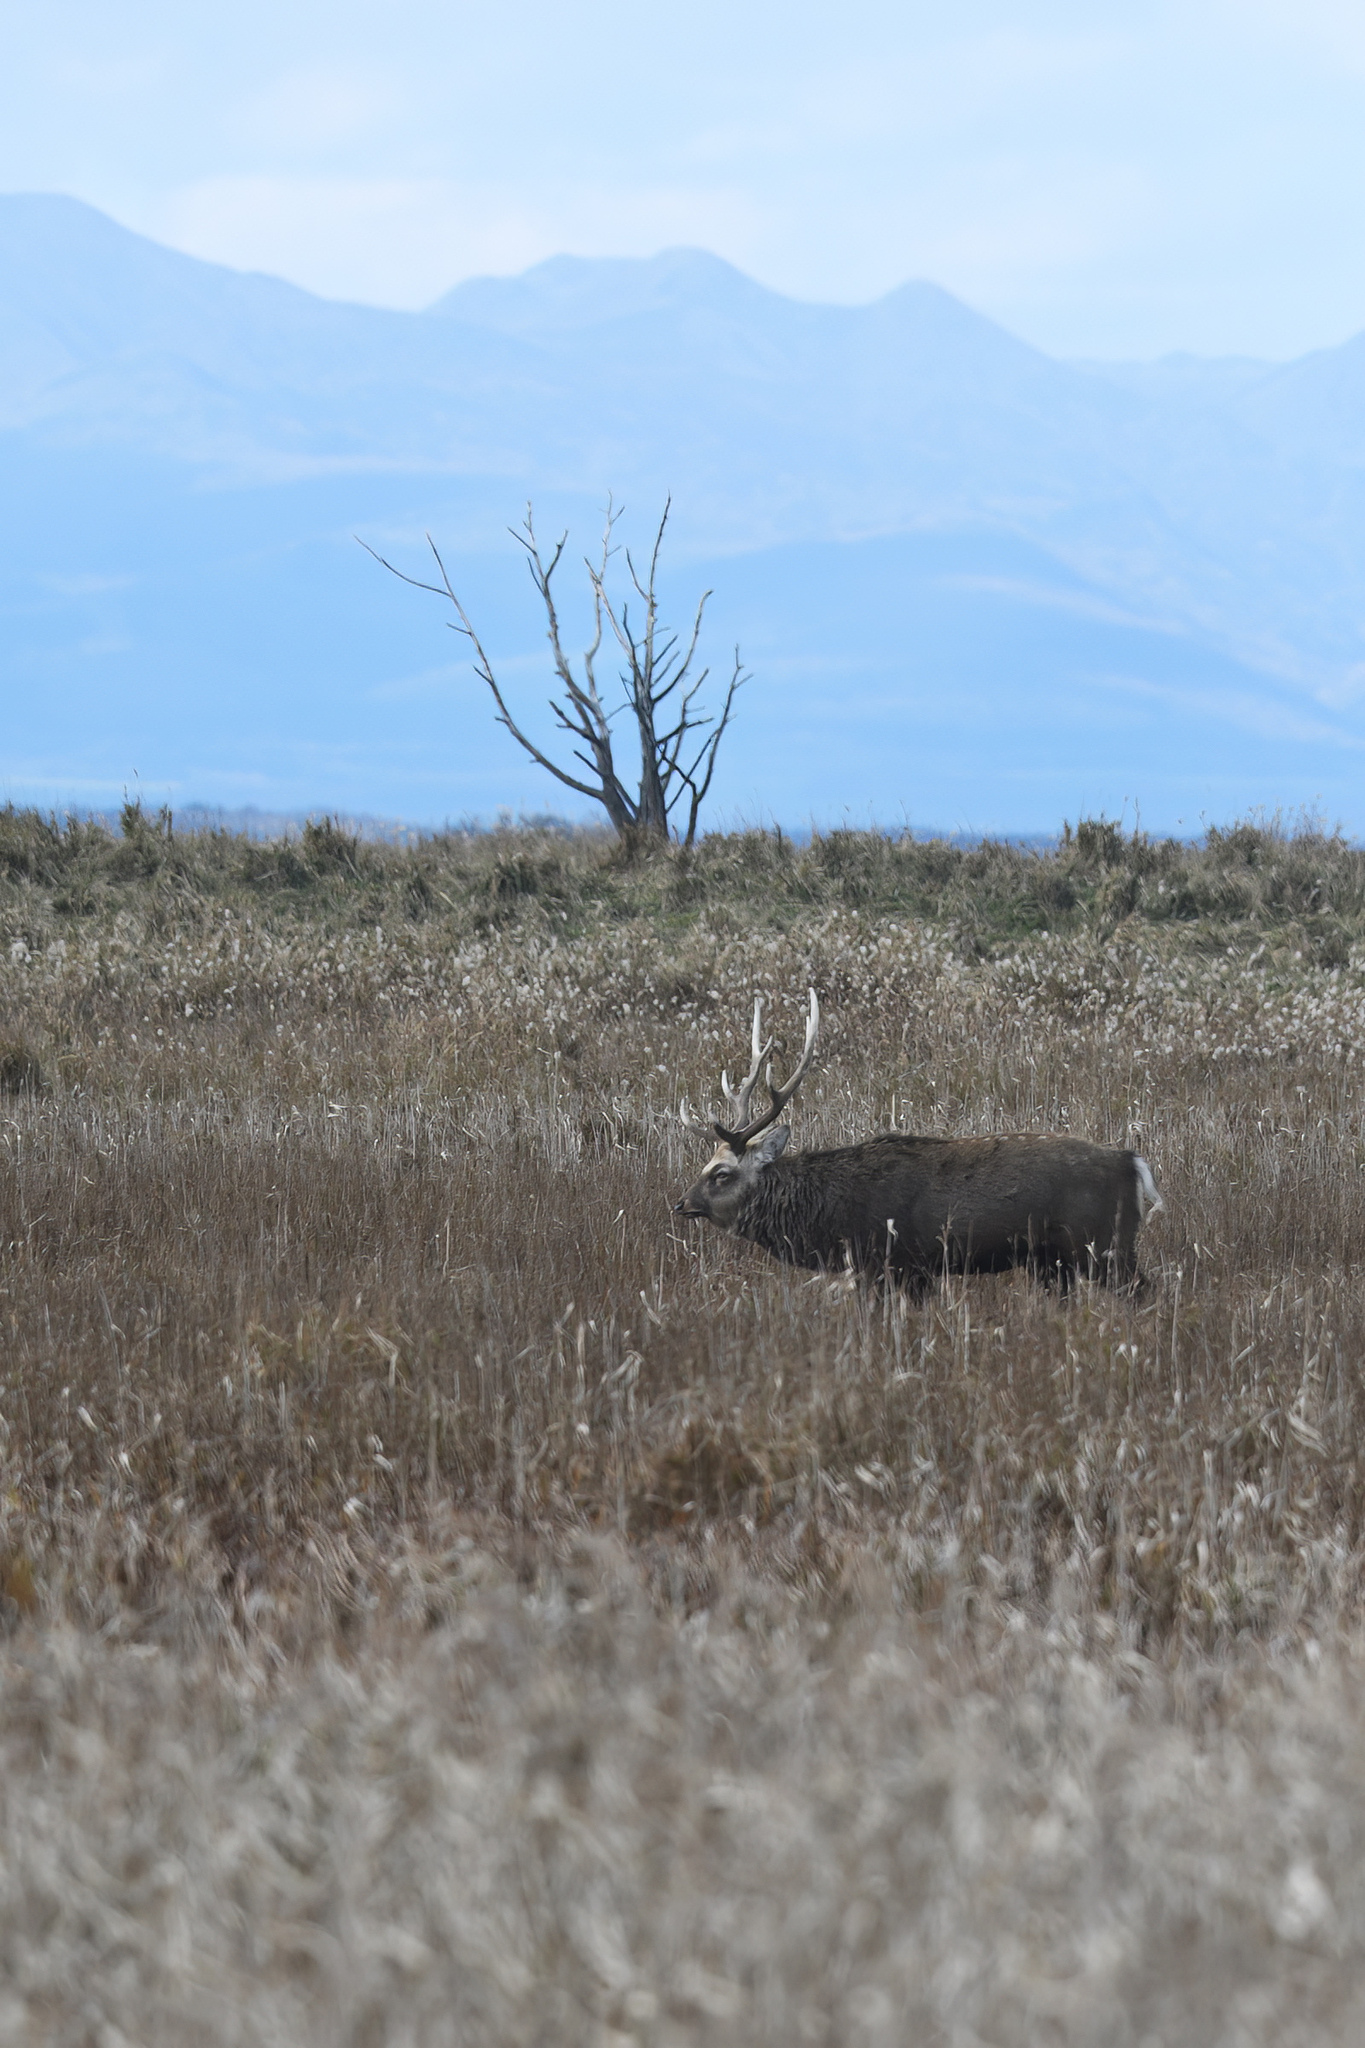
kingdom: Animalia
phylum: Chordata
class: Mammalia
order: Artiodactyla
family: Cervidae
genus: Cervus
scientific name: Cervus nippon
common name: Sika deer
